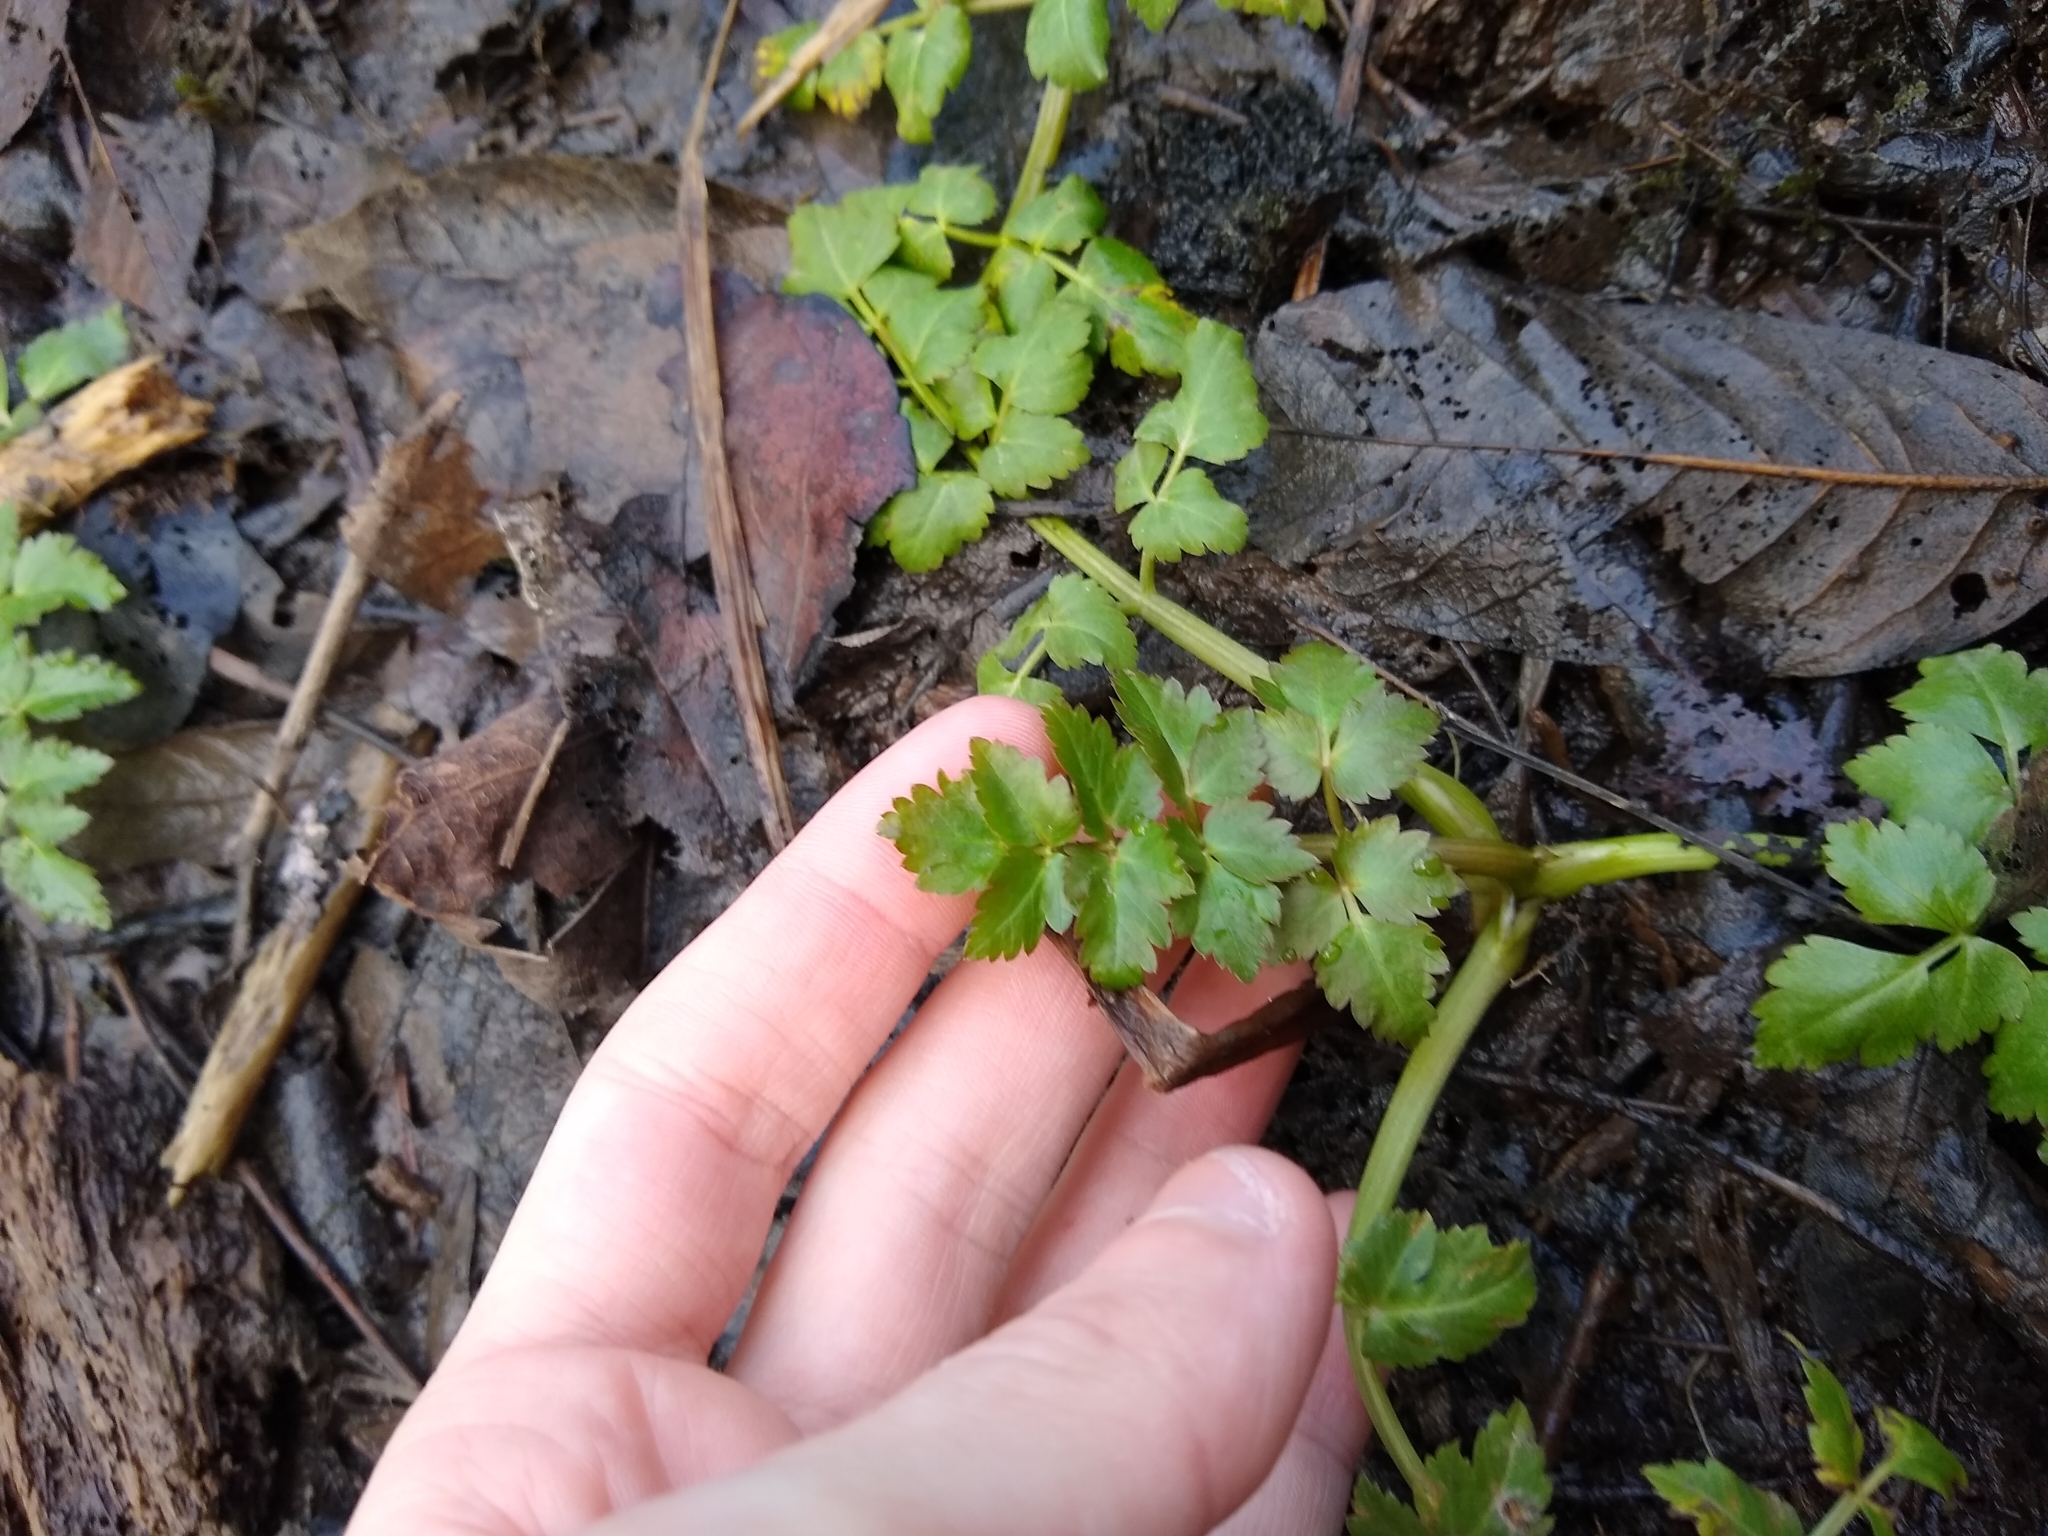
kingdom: Plantae
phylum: Tracheophyta
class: Magnoliopsida
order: Apiales
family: Apiaceae
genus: Oenanthe
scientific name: Oenanthe sarmentosa
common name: American water-parsley
